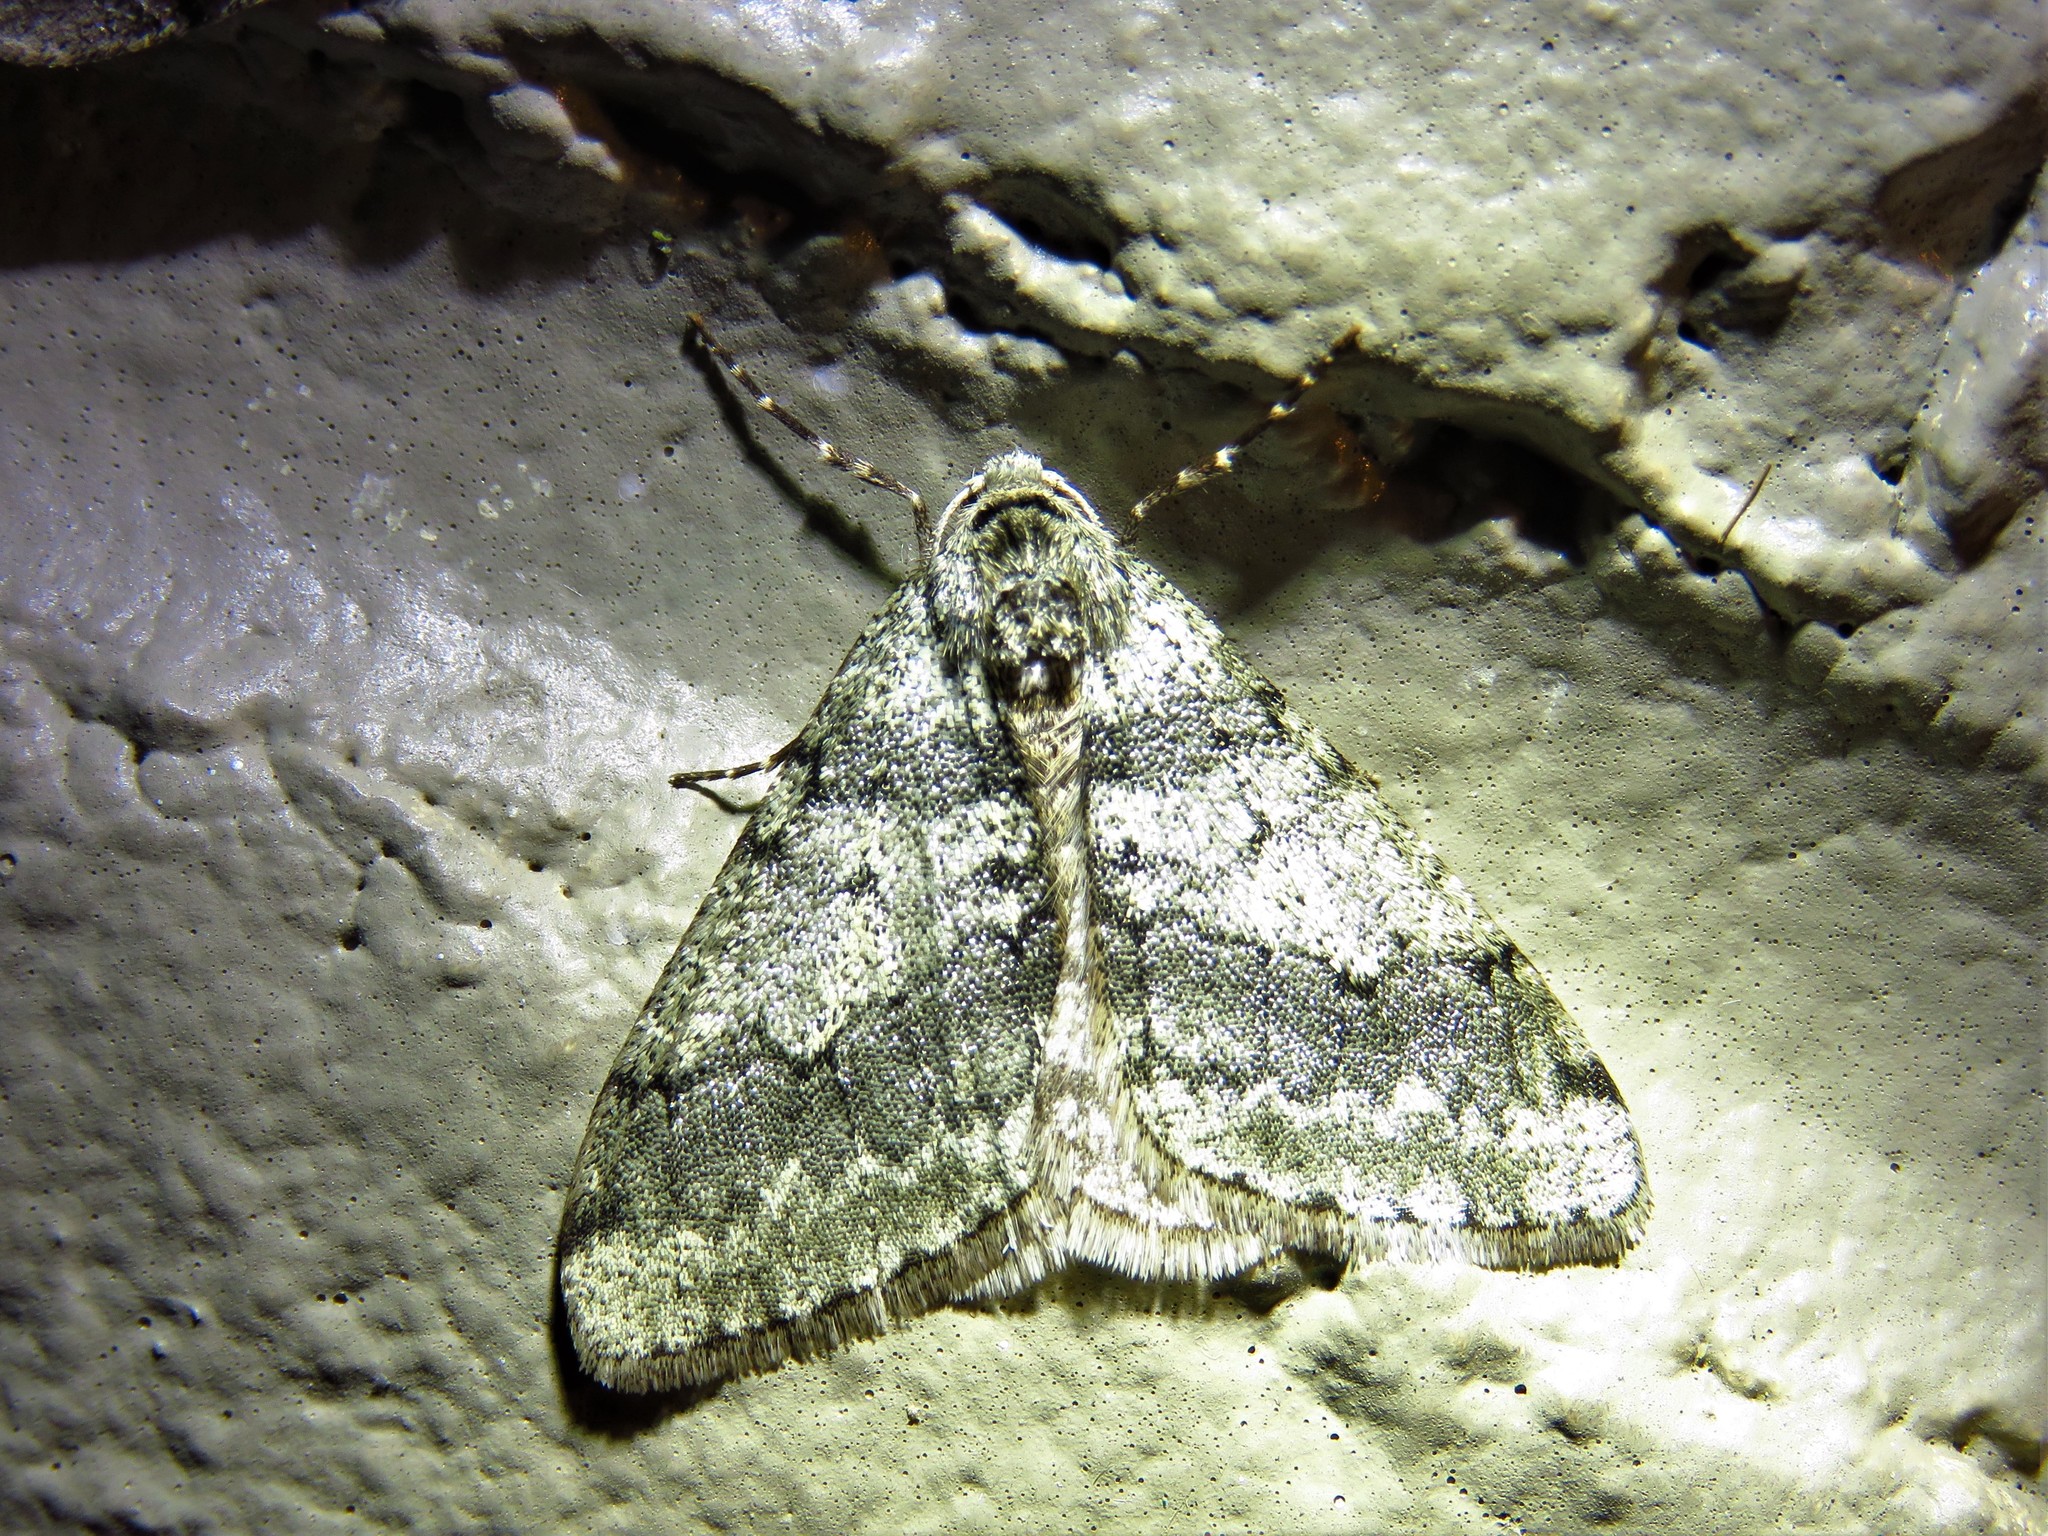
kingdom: Animalia
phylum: Arthropoda
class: Insecta
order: Lepidoptera
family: Geometridae
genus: Phigalia
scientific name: Phigalia strigataria
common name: Small phigalia
